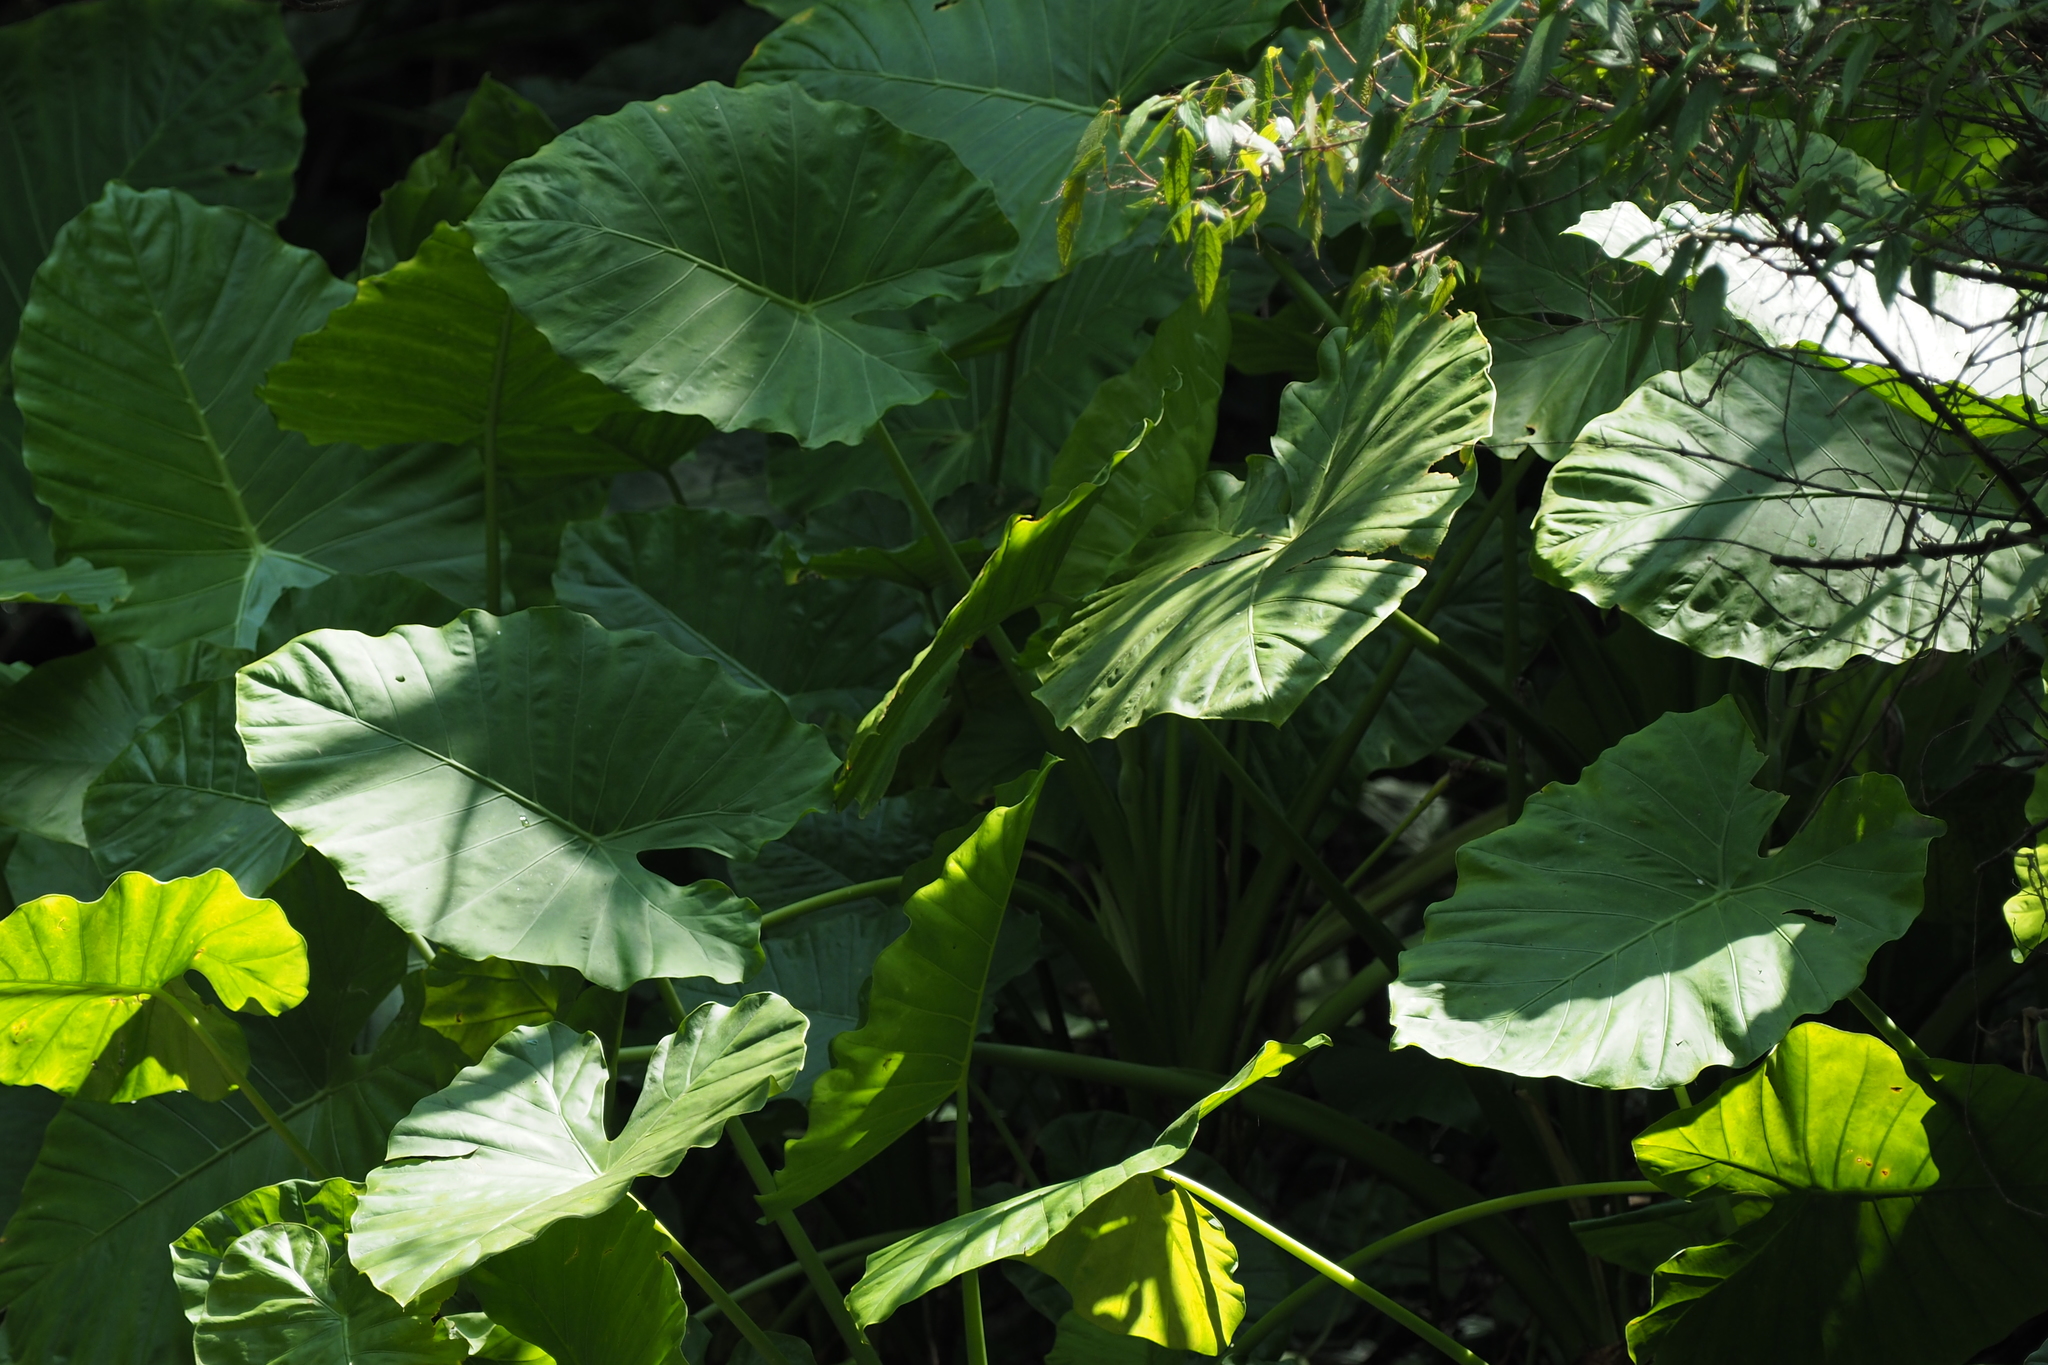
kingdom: Plantae
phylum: Tracheophyta
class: Liliopsida
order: Alismatales
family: Araceae
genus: Alocasia
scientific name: Alocasia odora
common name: Asian taro
